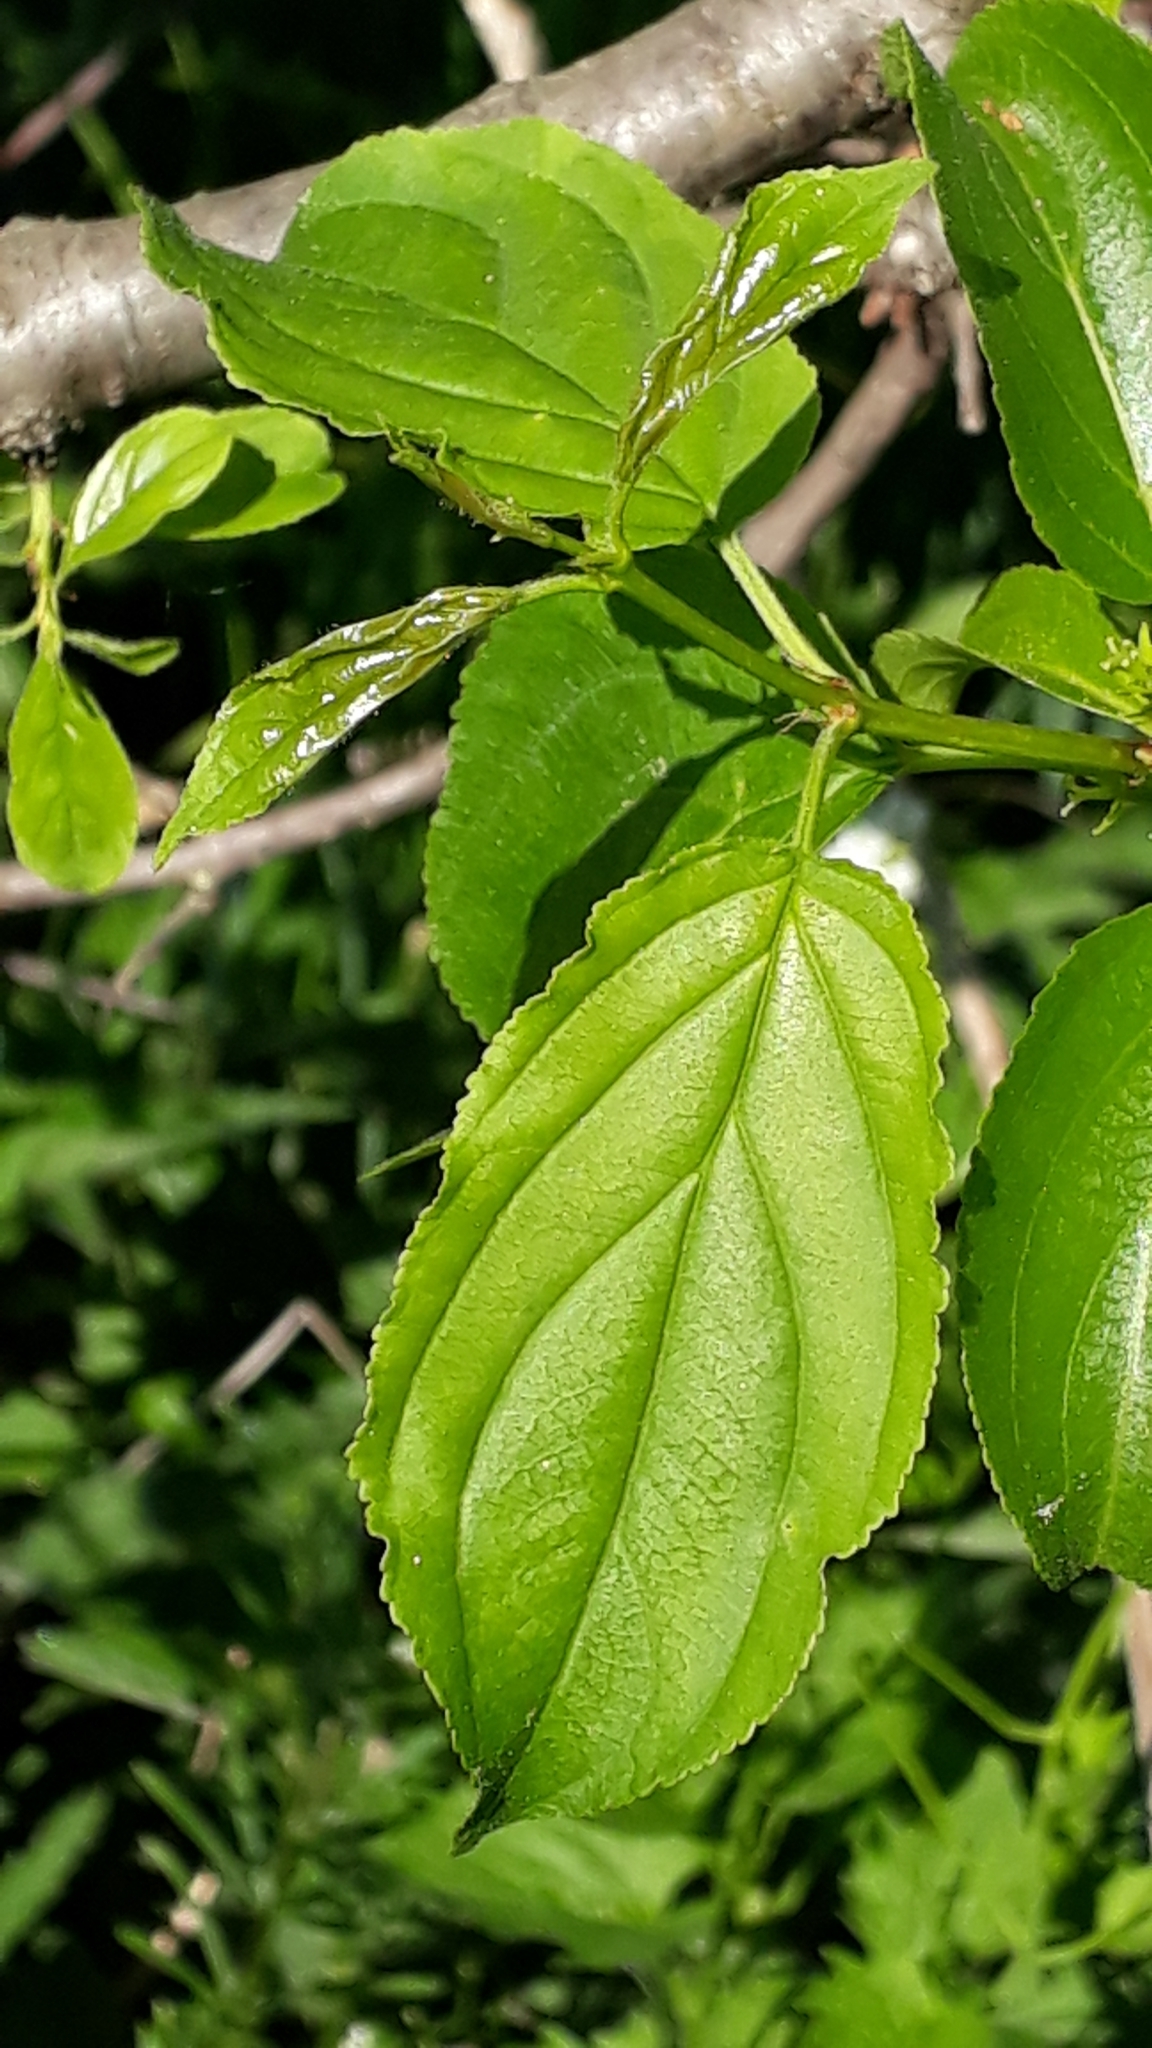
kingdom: Plantae
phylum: Tracheophyta
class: Magnoliopsida
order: Rosales
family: Rhamnaceae
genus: Rhamnus
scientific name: Rhamnus cathartica
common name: Common buckthorn
